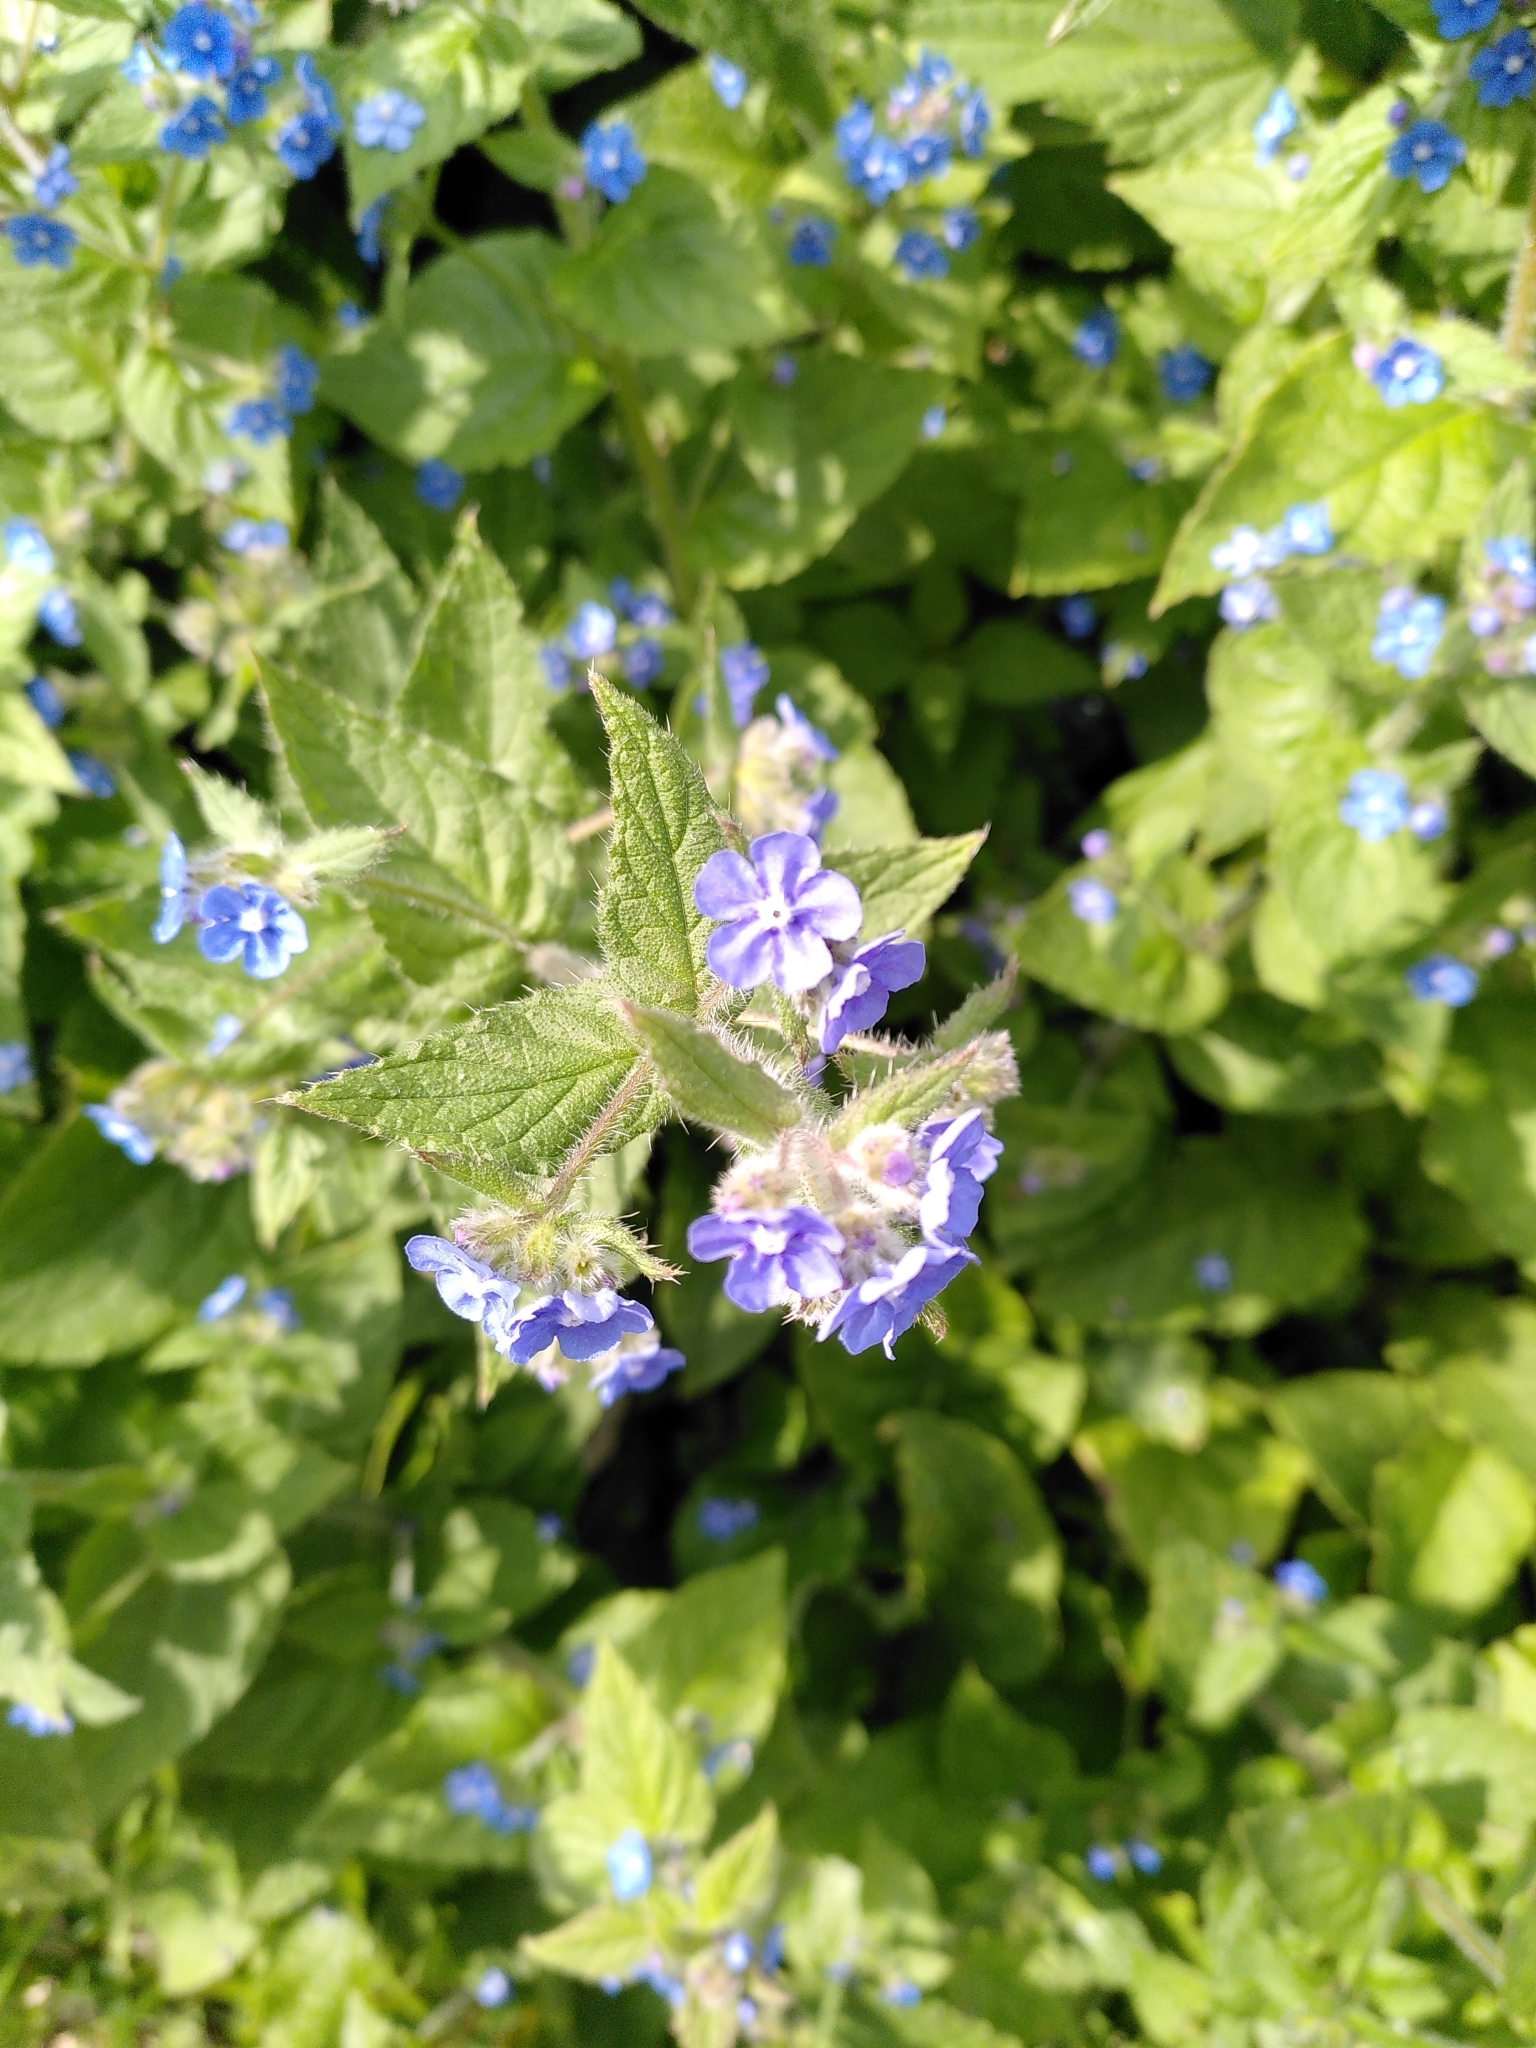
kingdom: Plantae
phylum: Tracheophyta
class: Magnoliopsida
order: Boraginales
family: Boraginaceae
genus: Pentaglottis
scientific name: Pentaglottis sempervirens
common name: Green alkanet
